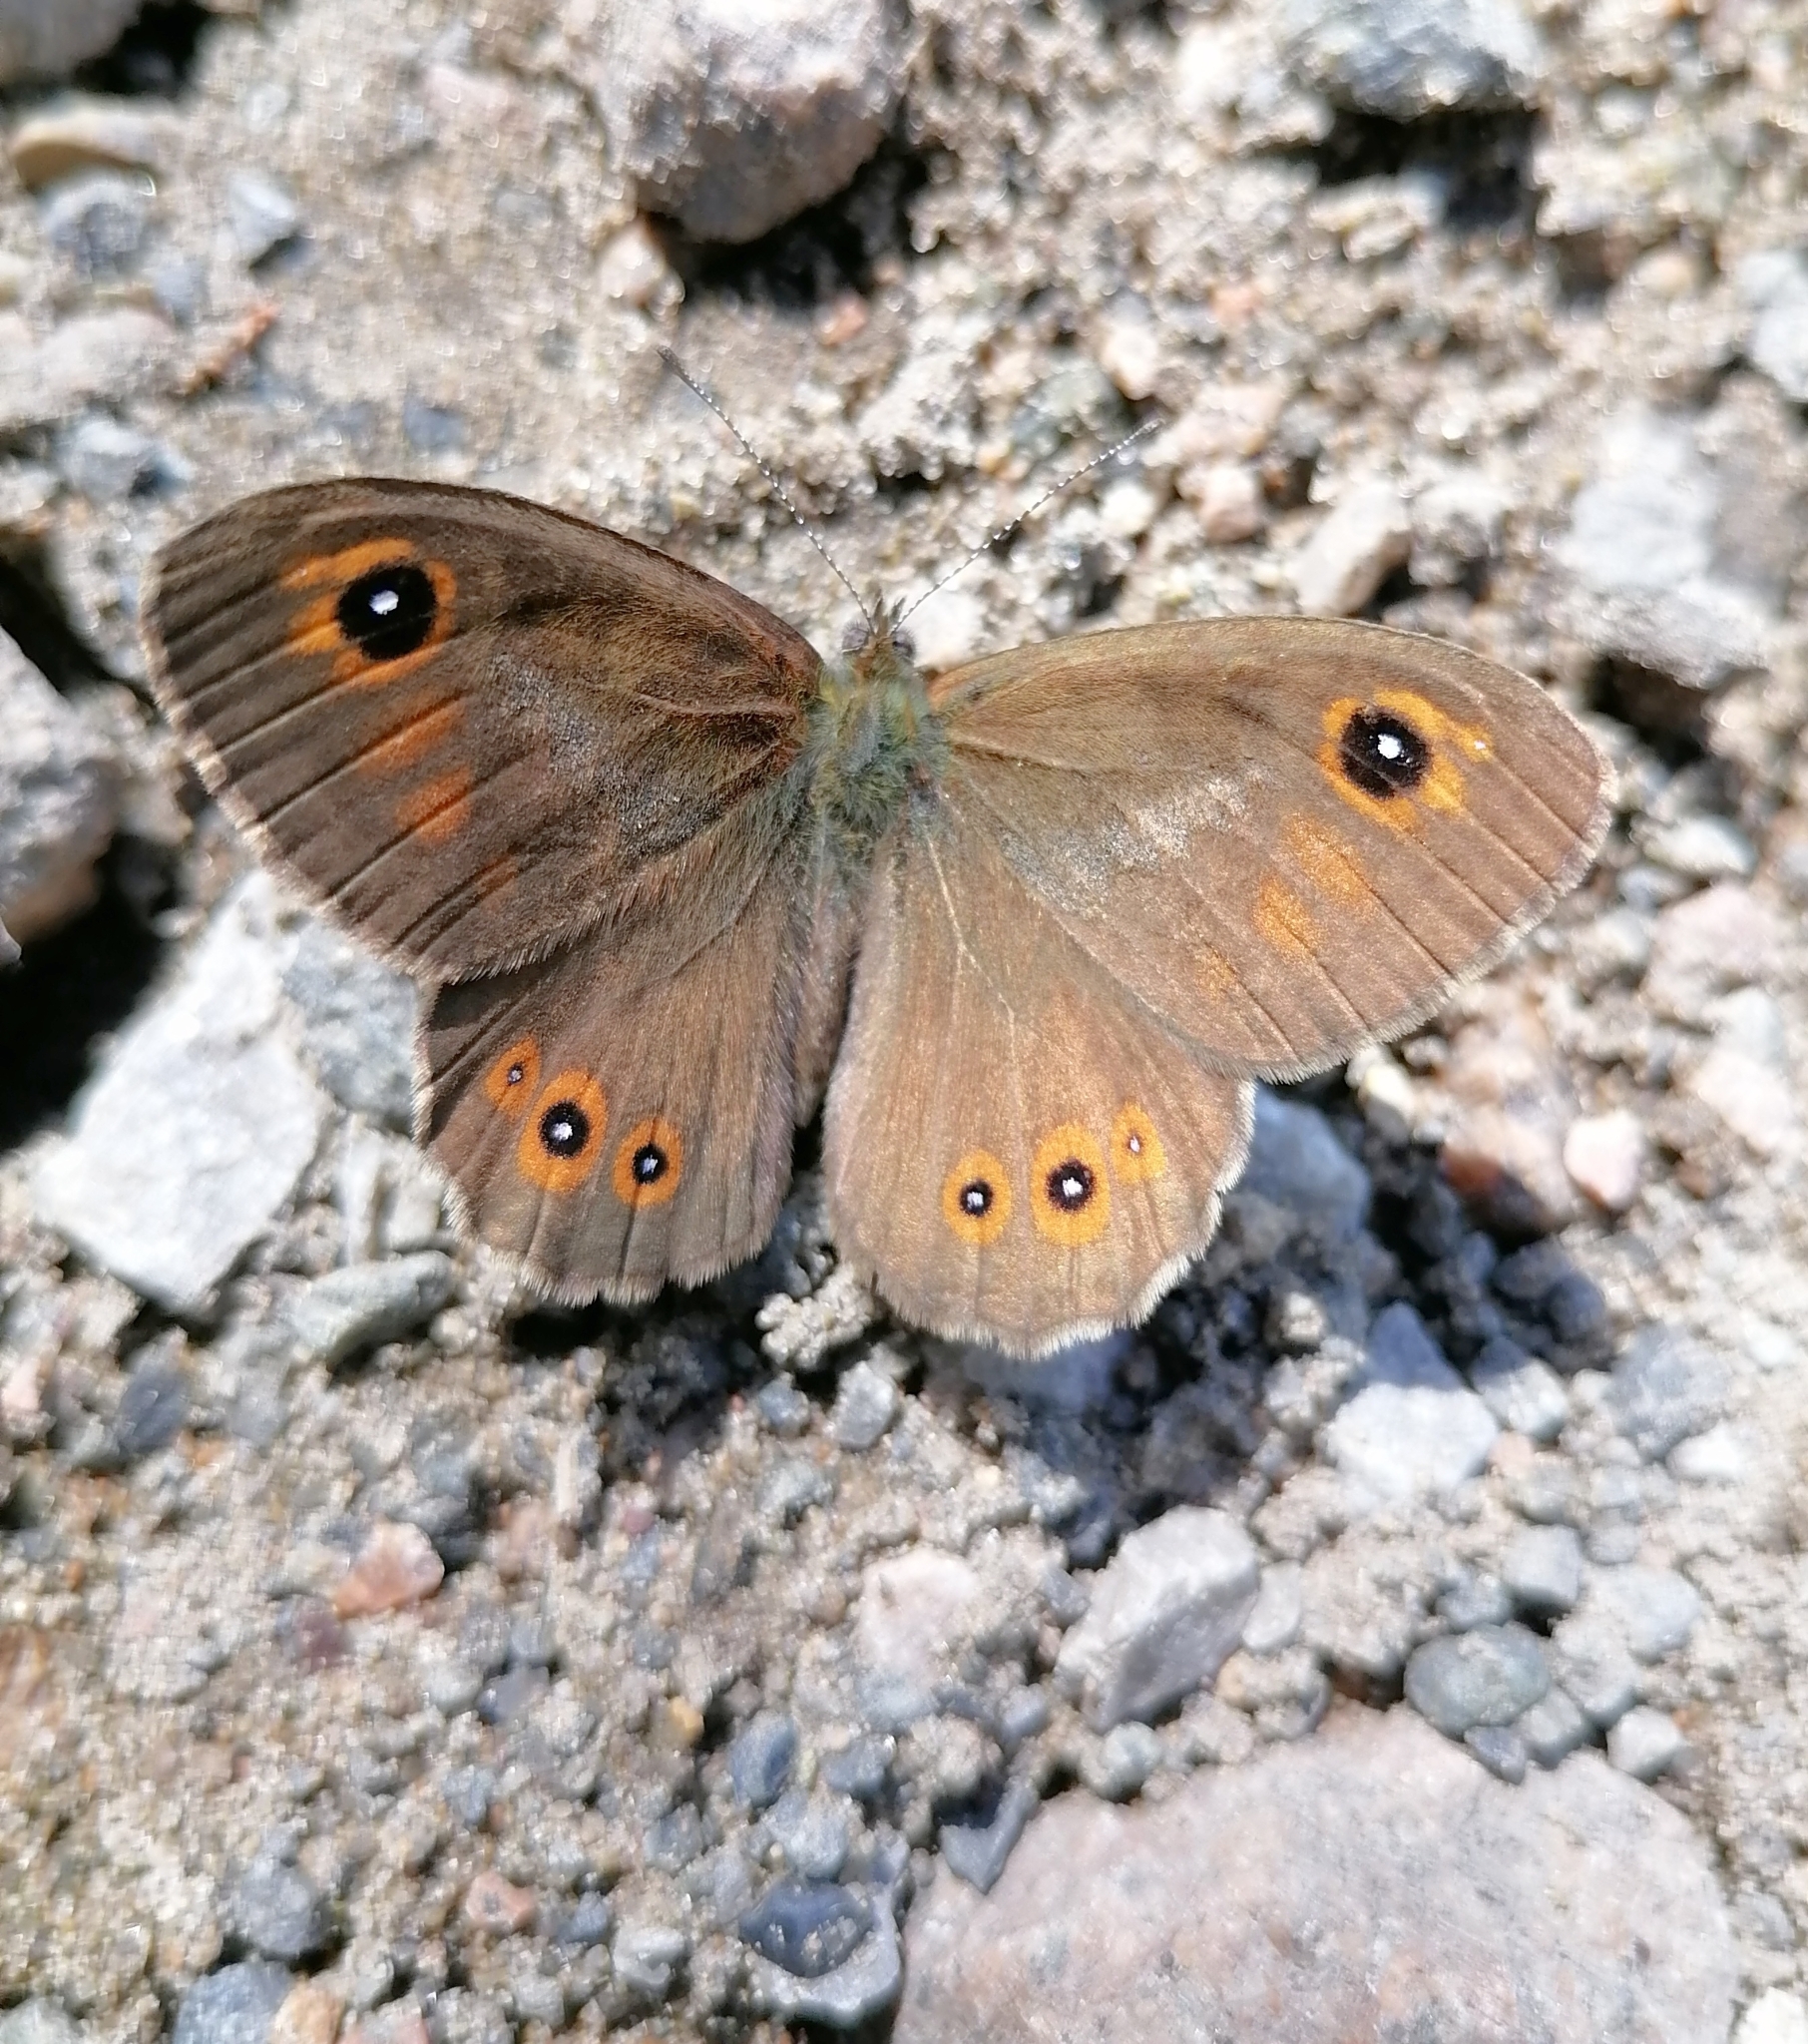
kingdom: Animalia
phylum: Arthropoda
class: Insecta
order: Lepidoptera
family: Nymphalidae
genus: Pararge
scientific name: Pararge Lasiommata maera
